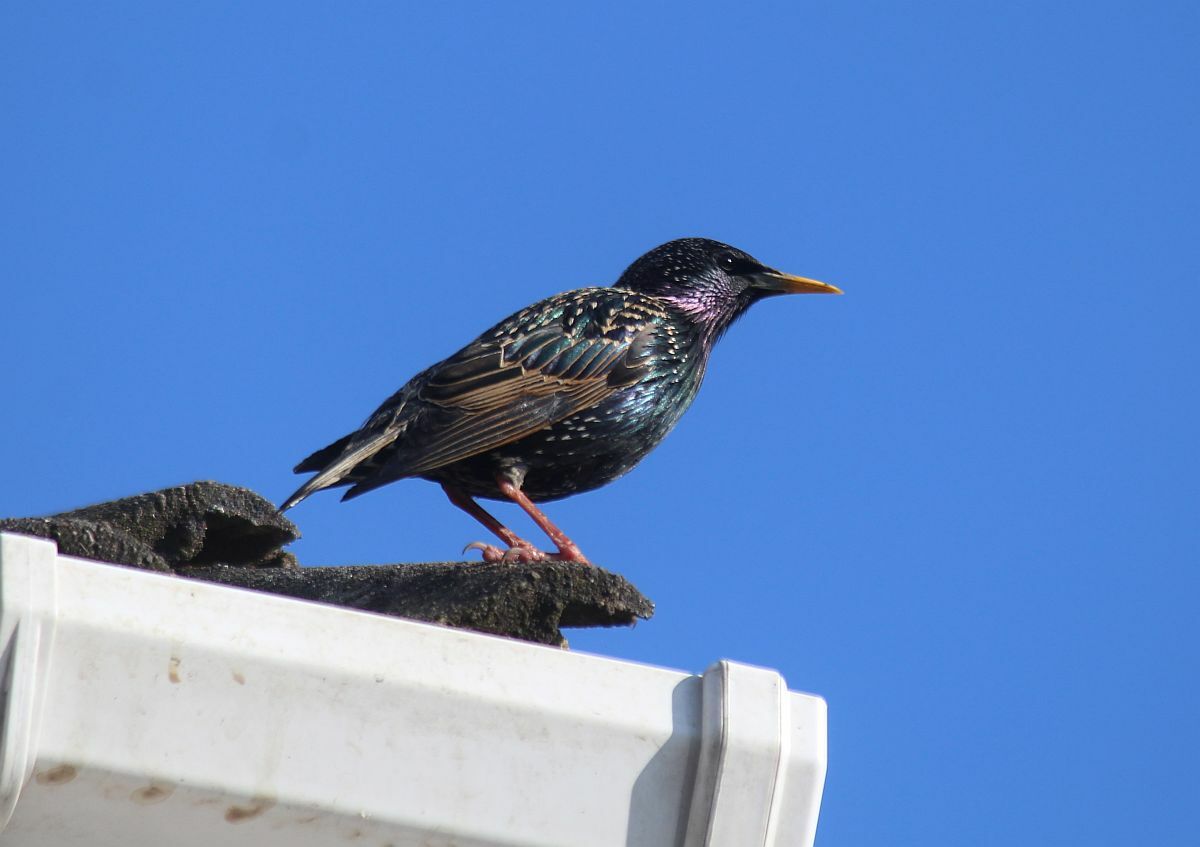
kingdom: Animalia
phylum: Chordata
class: Aves
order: Passeriformes
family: Sturnidae
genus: Sturnus
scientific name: Sturnus vulgaris
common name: Common starling
